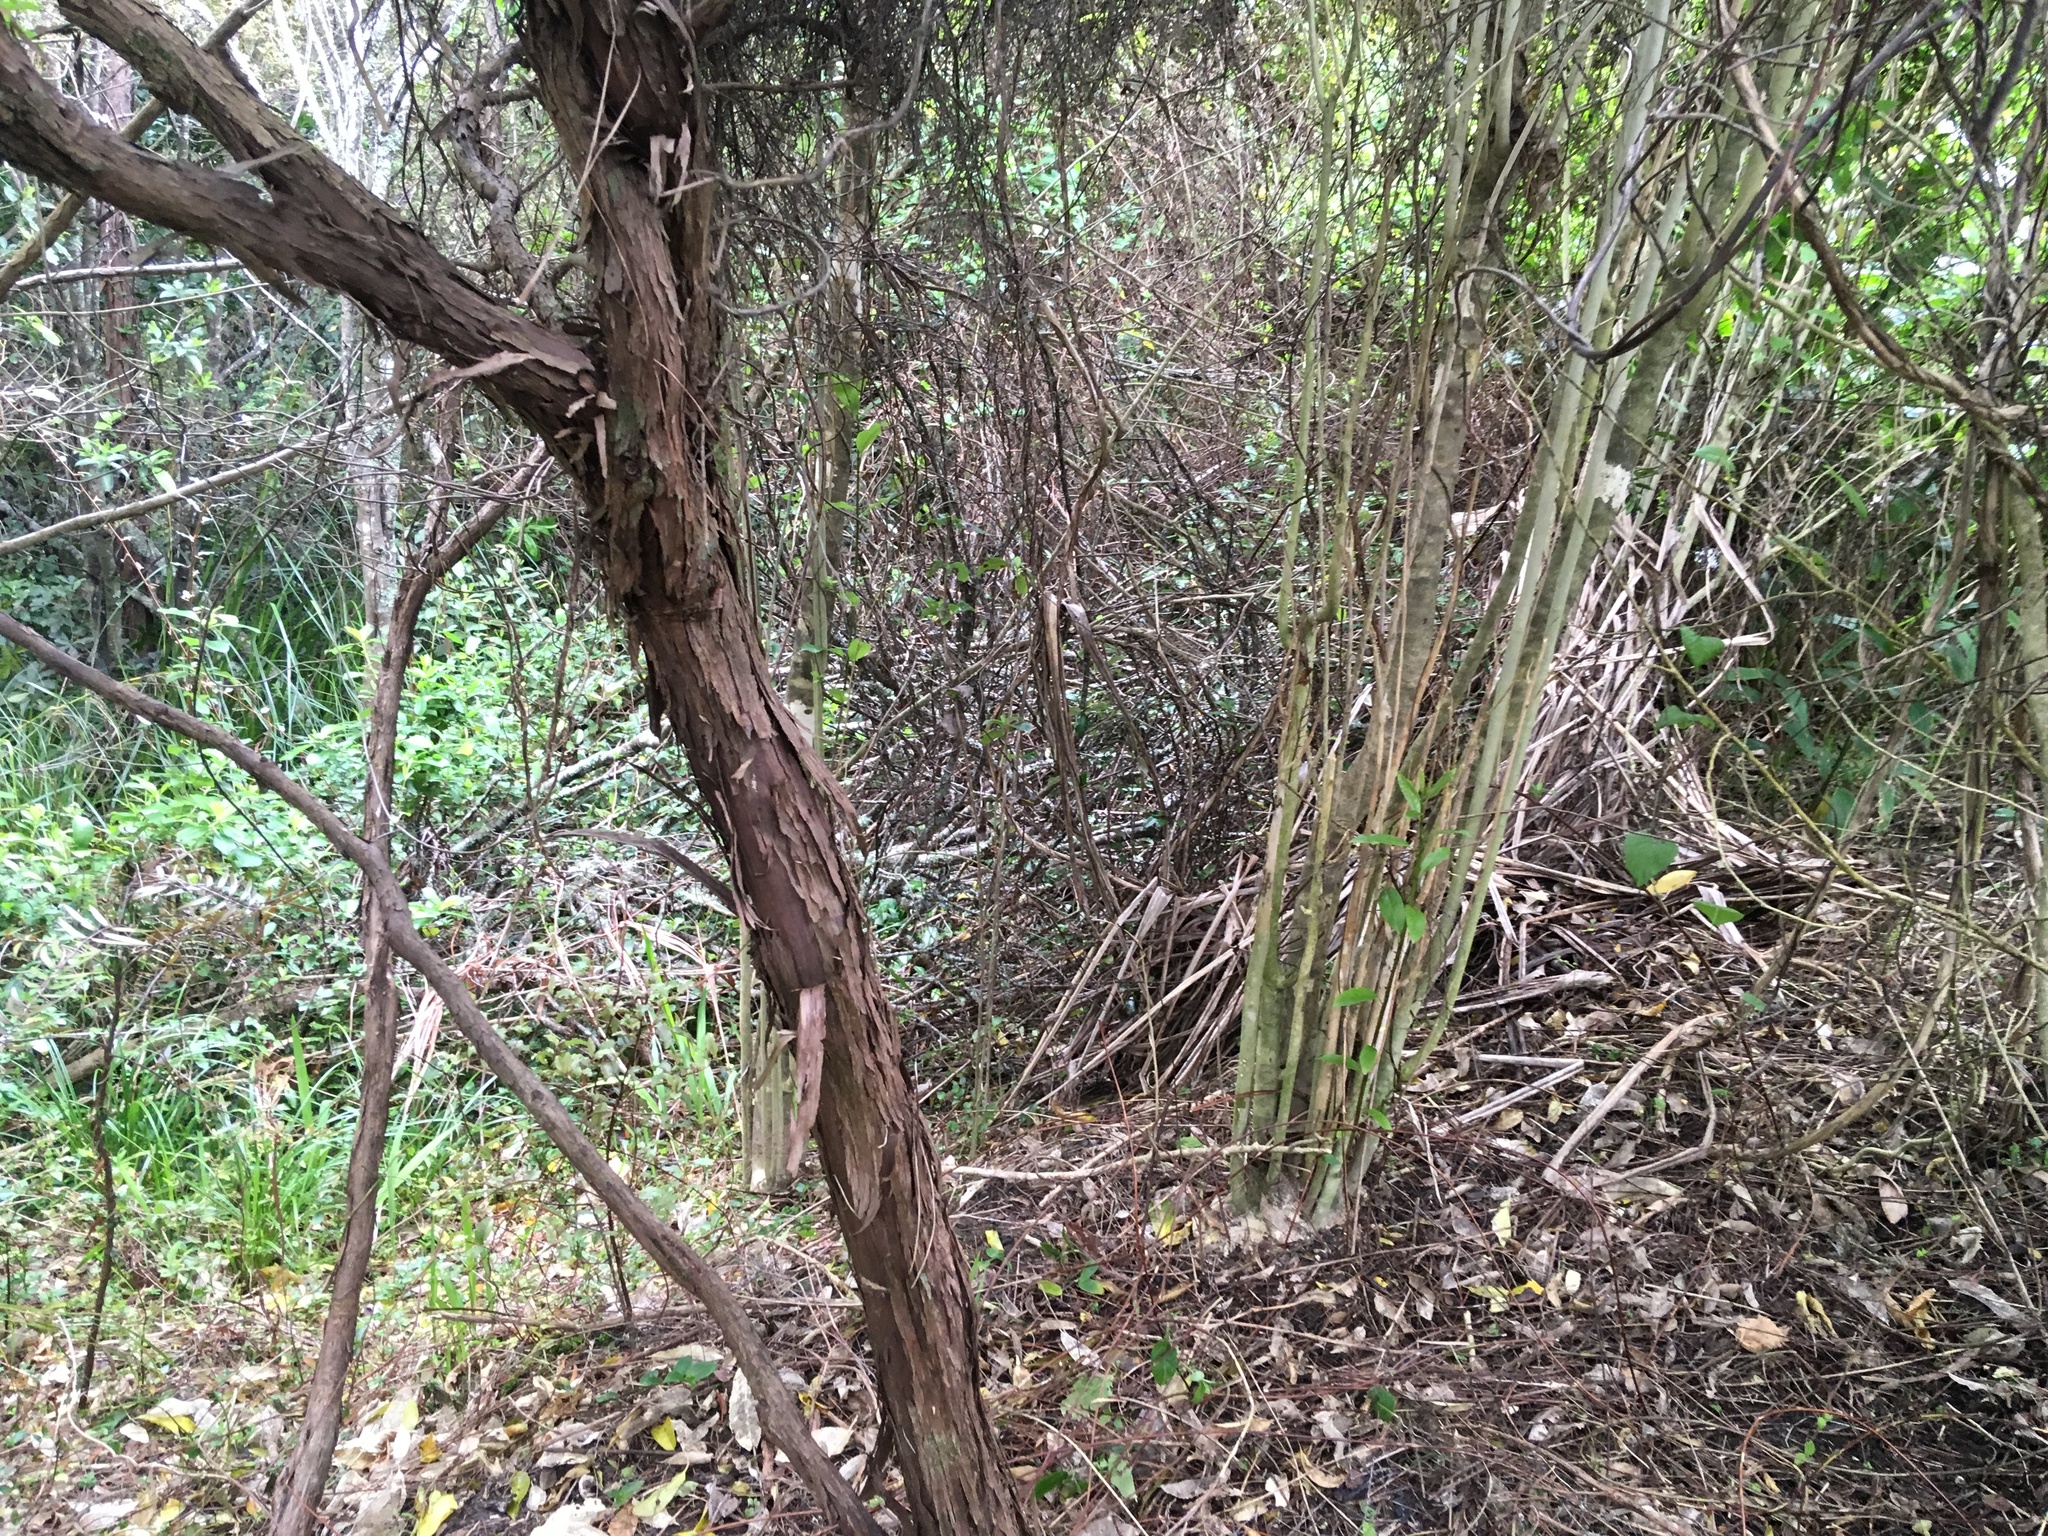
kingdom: Plantae
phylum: Tracheophyta
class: Magnoliopsida
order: Malpighiales
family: Violaceae
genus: Melicytus
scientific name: Melicytus ramiflorus
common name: Mahoe
